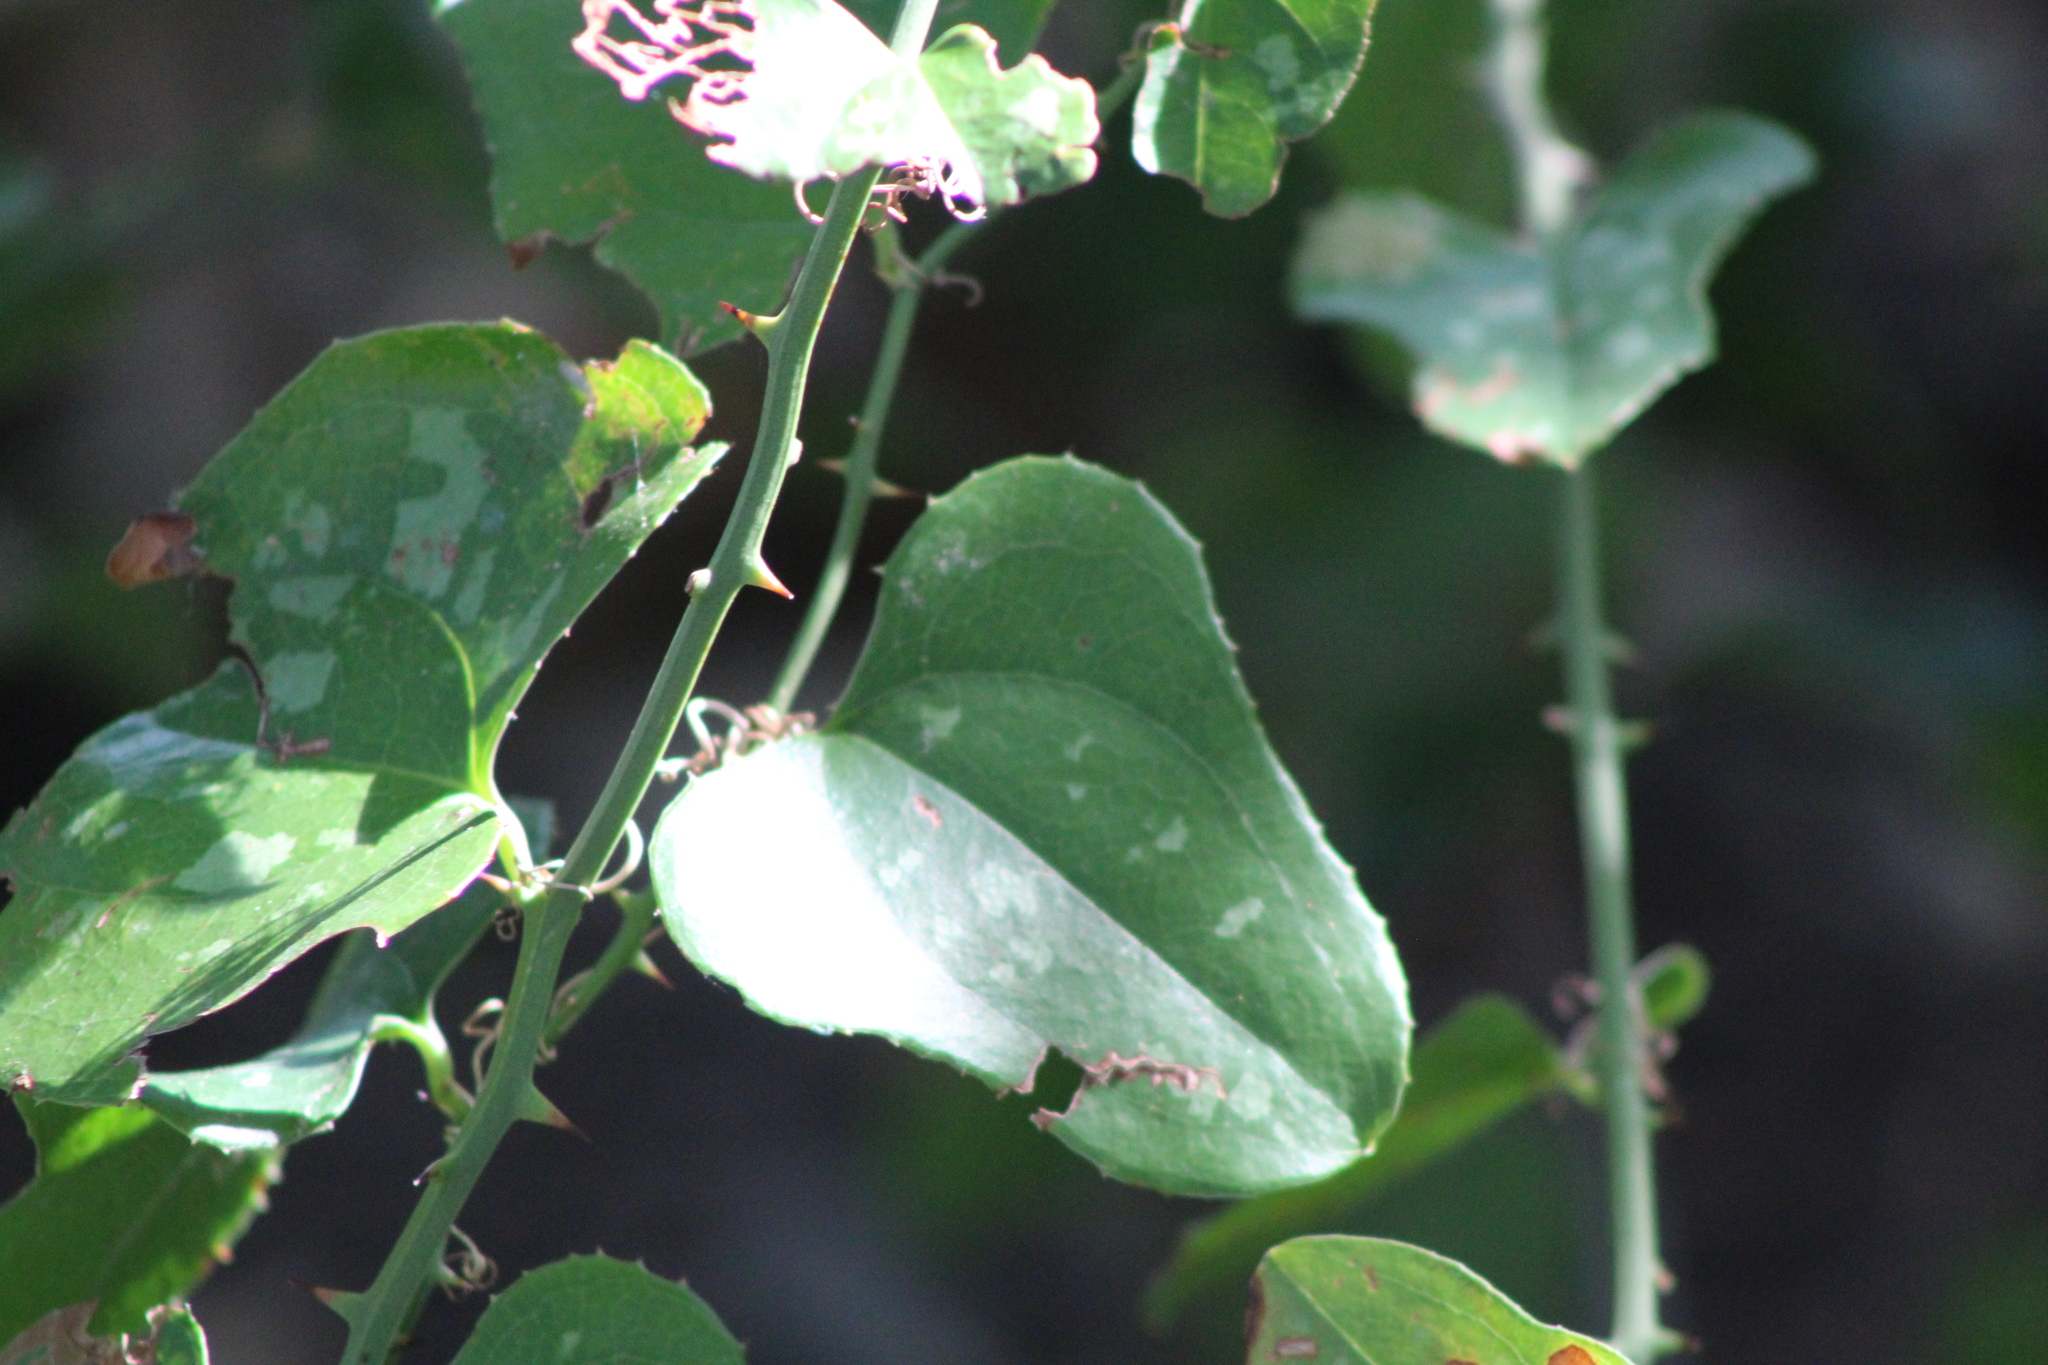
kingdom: Plantae
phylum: Tracheophyta
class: Liliopsida
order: Liliales
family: Smilacaceae
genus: Smilax
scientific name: Smilax bona-nox
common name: Catbrier
